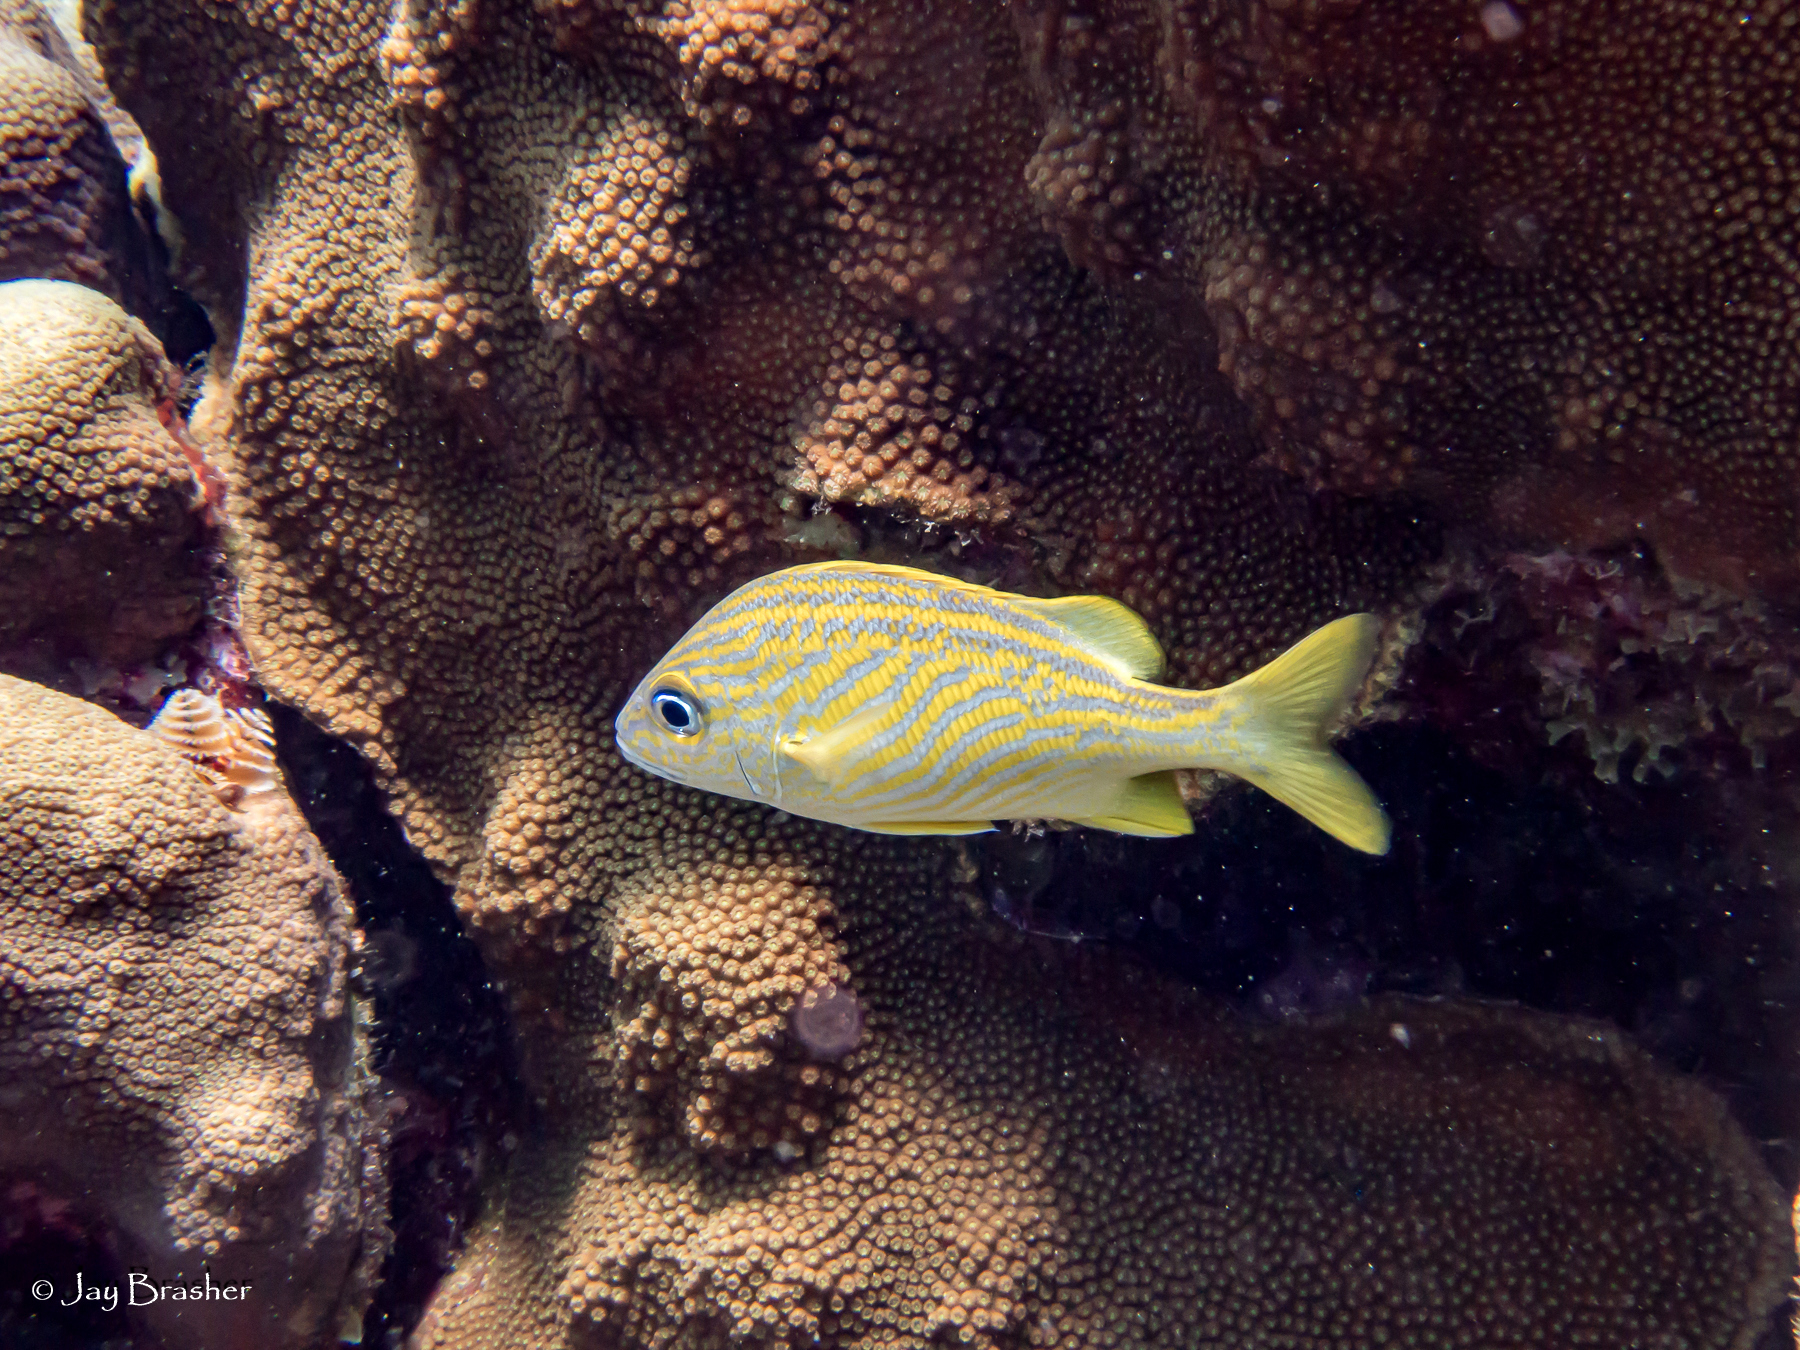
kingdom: Animalia
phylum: Annelida
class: Polychaeta
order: Sabellida
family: Serpulidae
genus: Spirobranchus
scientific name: Spirobranchus giganteus
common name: Christmas tree worm
